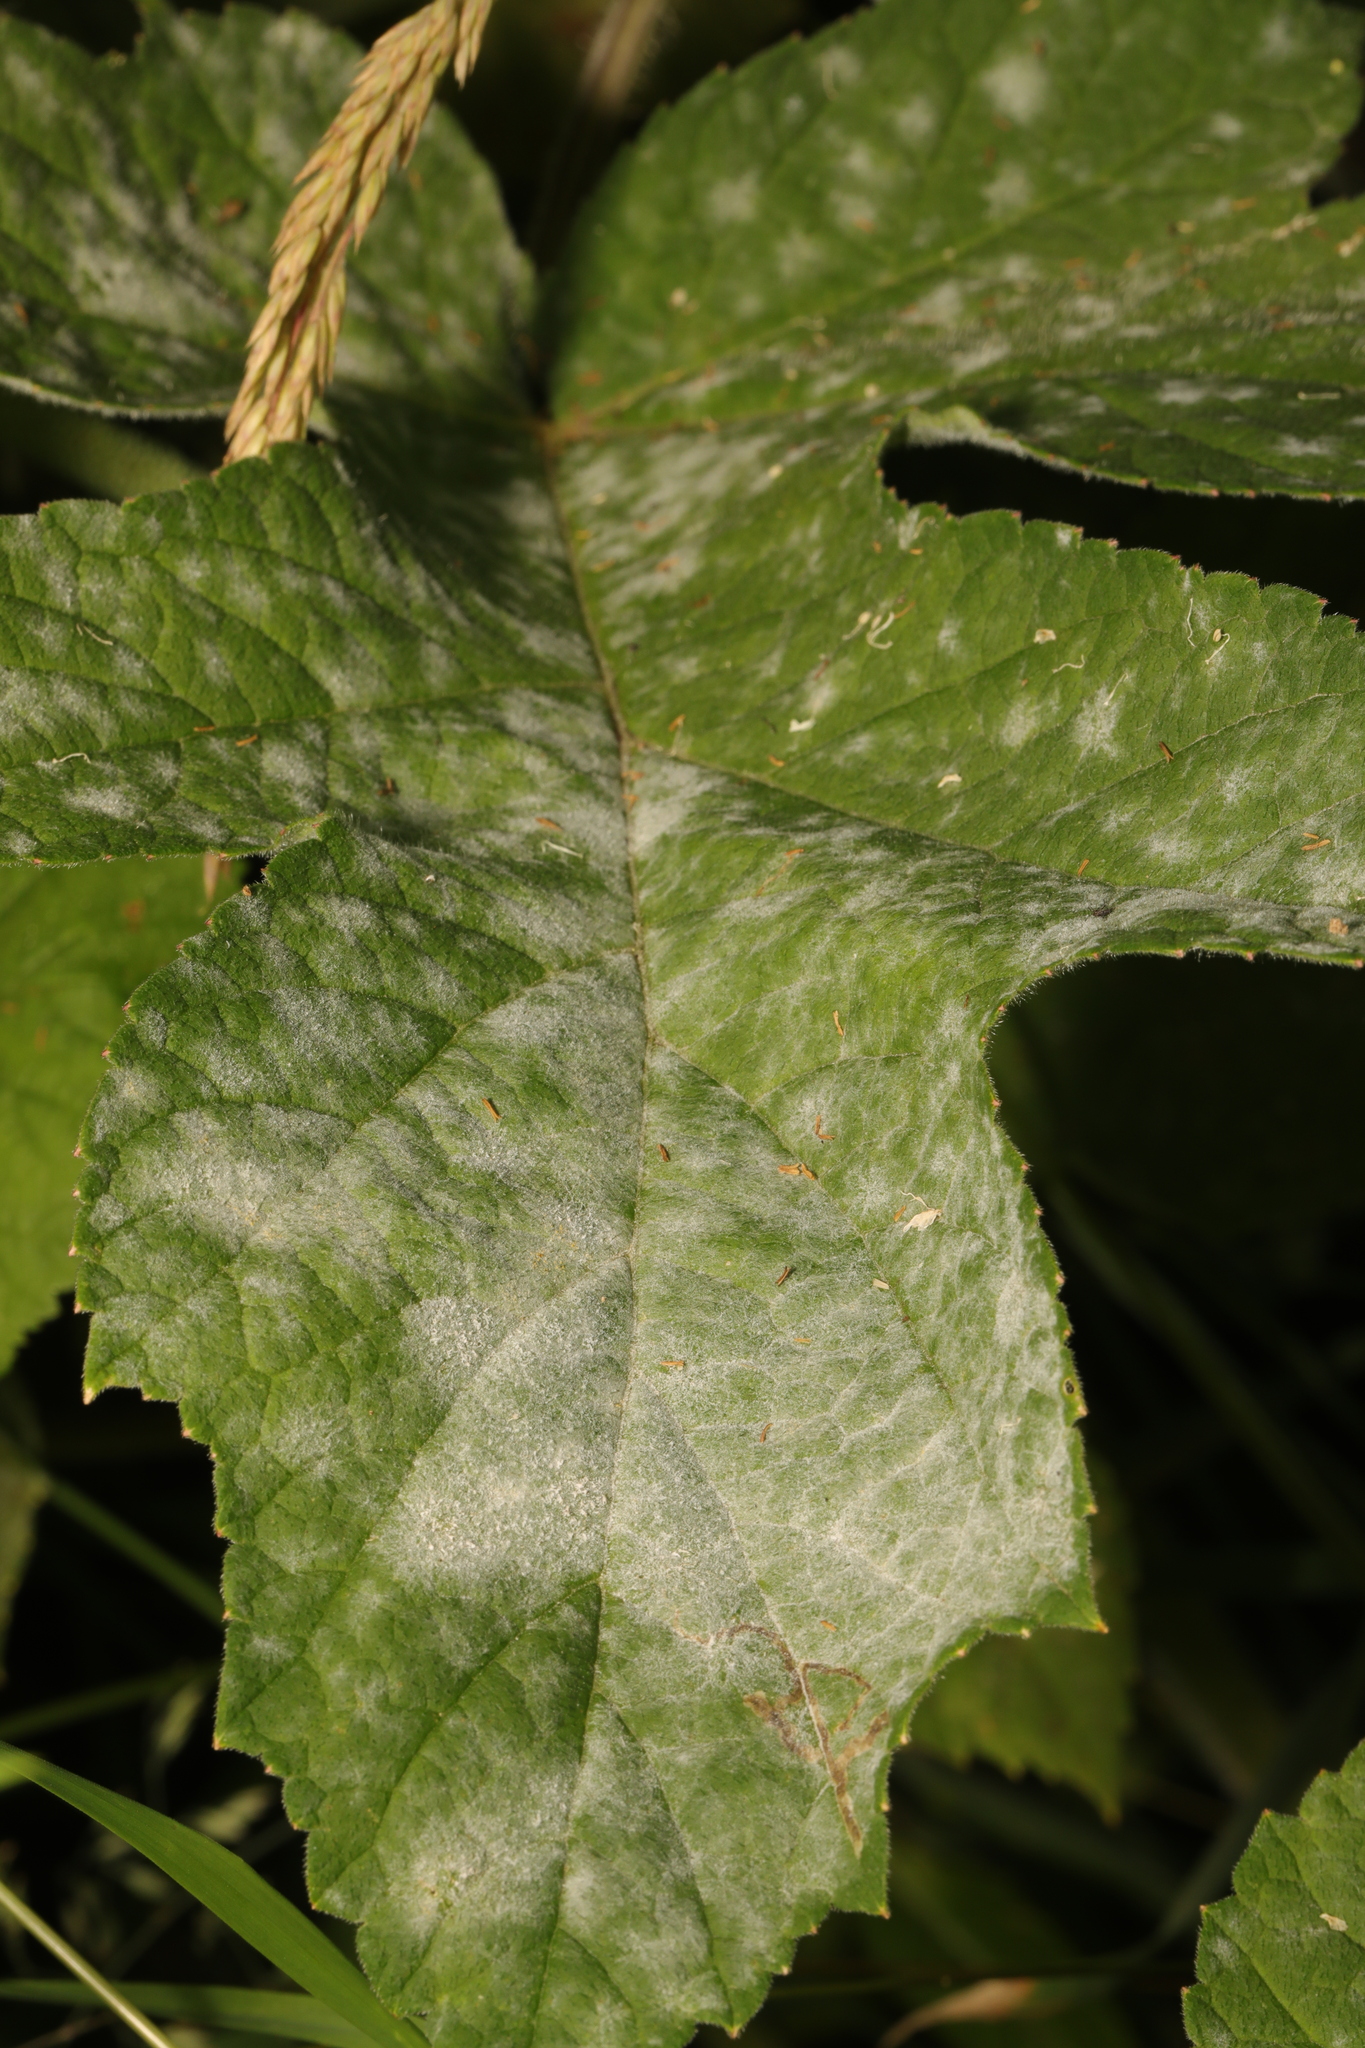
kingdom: Fungi
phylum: Ascomycota
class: Leotiomycetes
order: Helotiales
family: Erysiphaceae
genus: Erysiphe
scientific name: Erysiphe heraclei
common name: Umbellifer mildew
